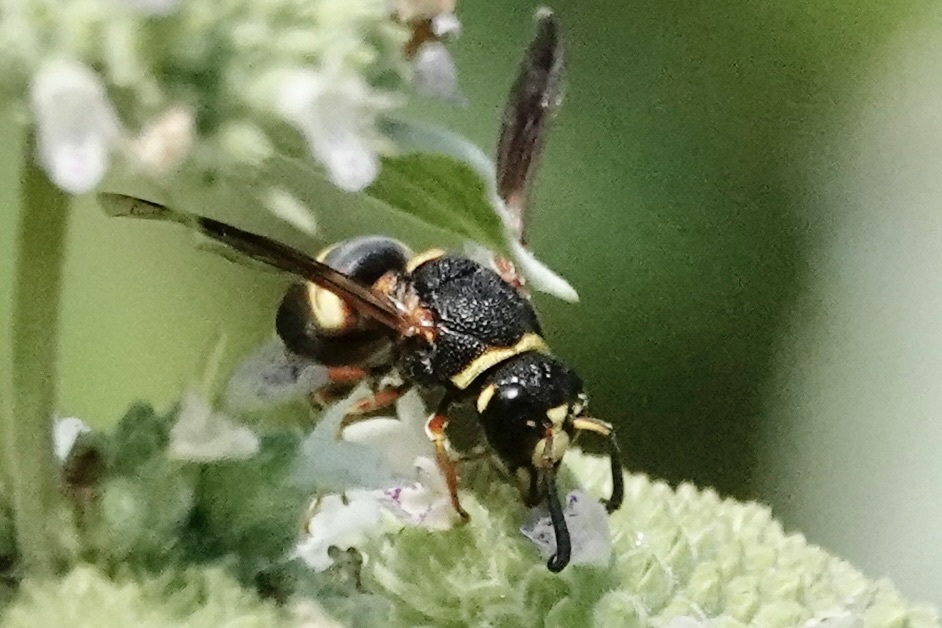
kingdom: Animalia
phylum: Arthropoda
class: Insecta
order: Hymenoptera
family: Eumenidae
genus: Euodynerus
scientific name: Euodynerus hidalgo
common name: Wasp
